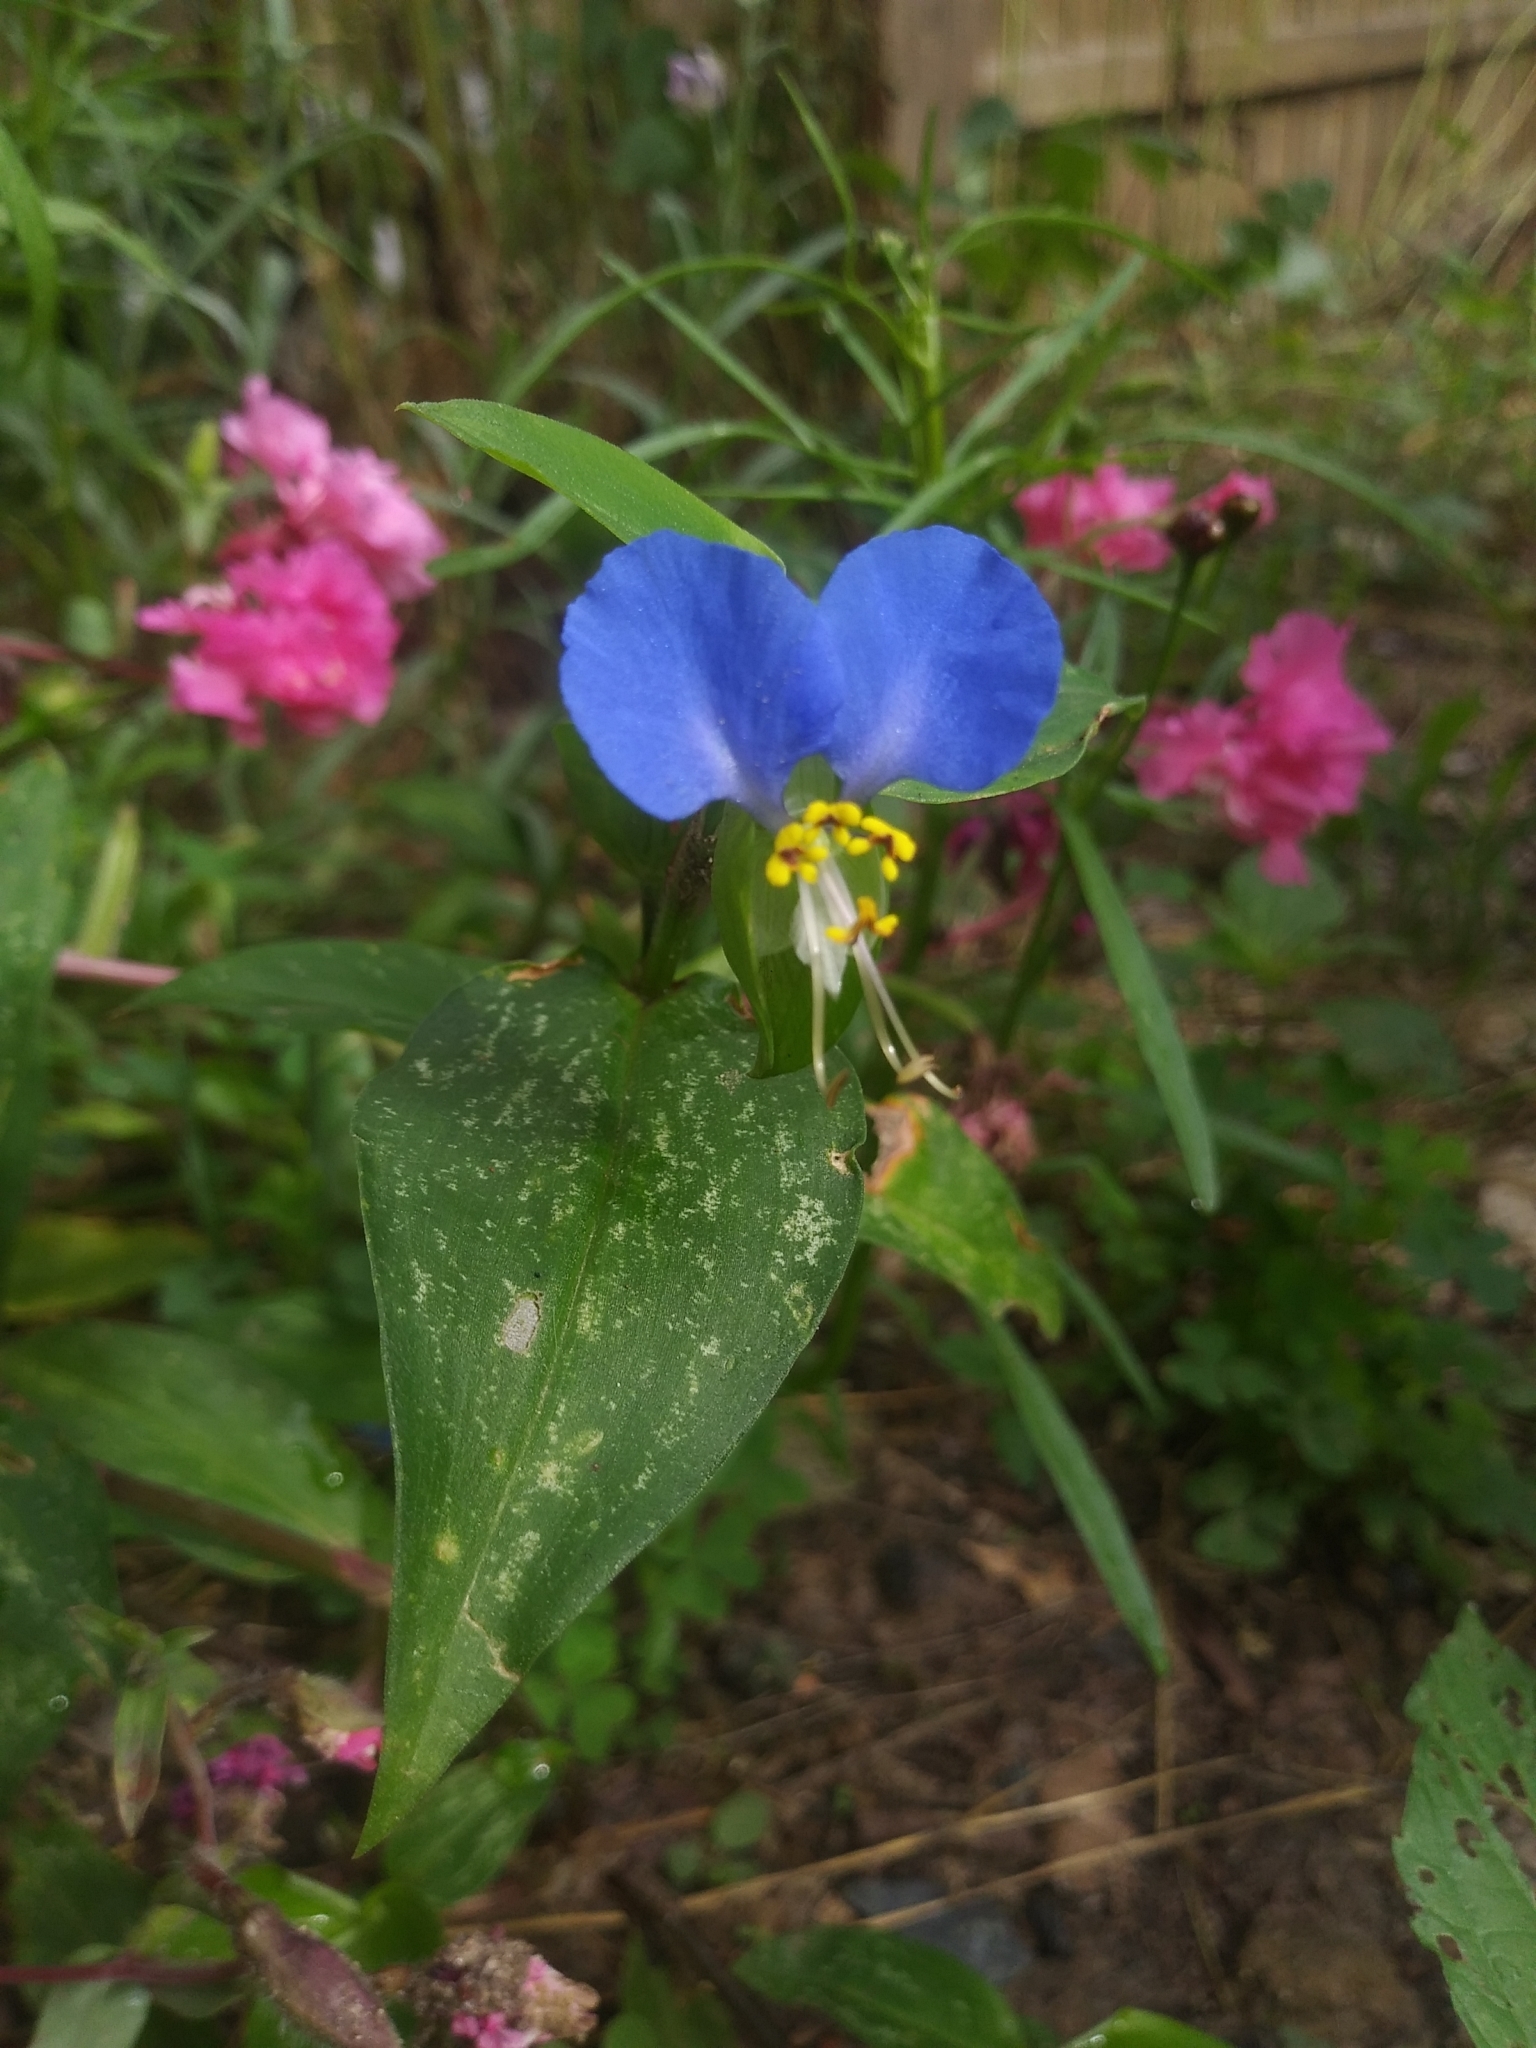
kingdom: Plantae
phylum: Tracheophyta
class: Liliopsida
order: Commelinales
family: Commelinaceae
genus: Commelina
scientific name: Commelina communis
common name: Asiatic dayflower
